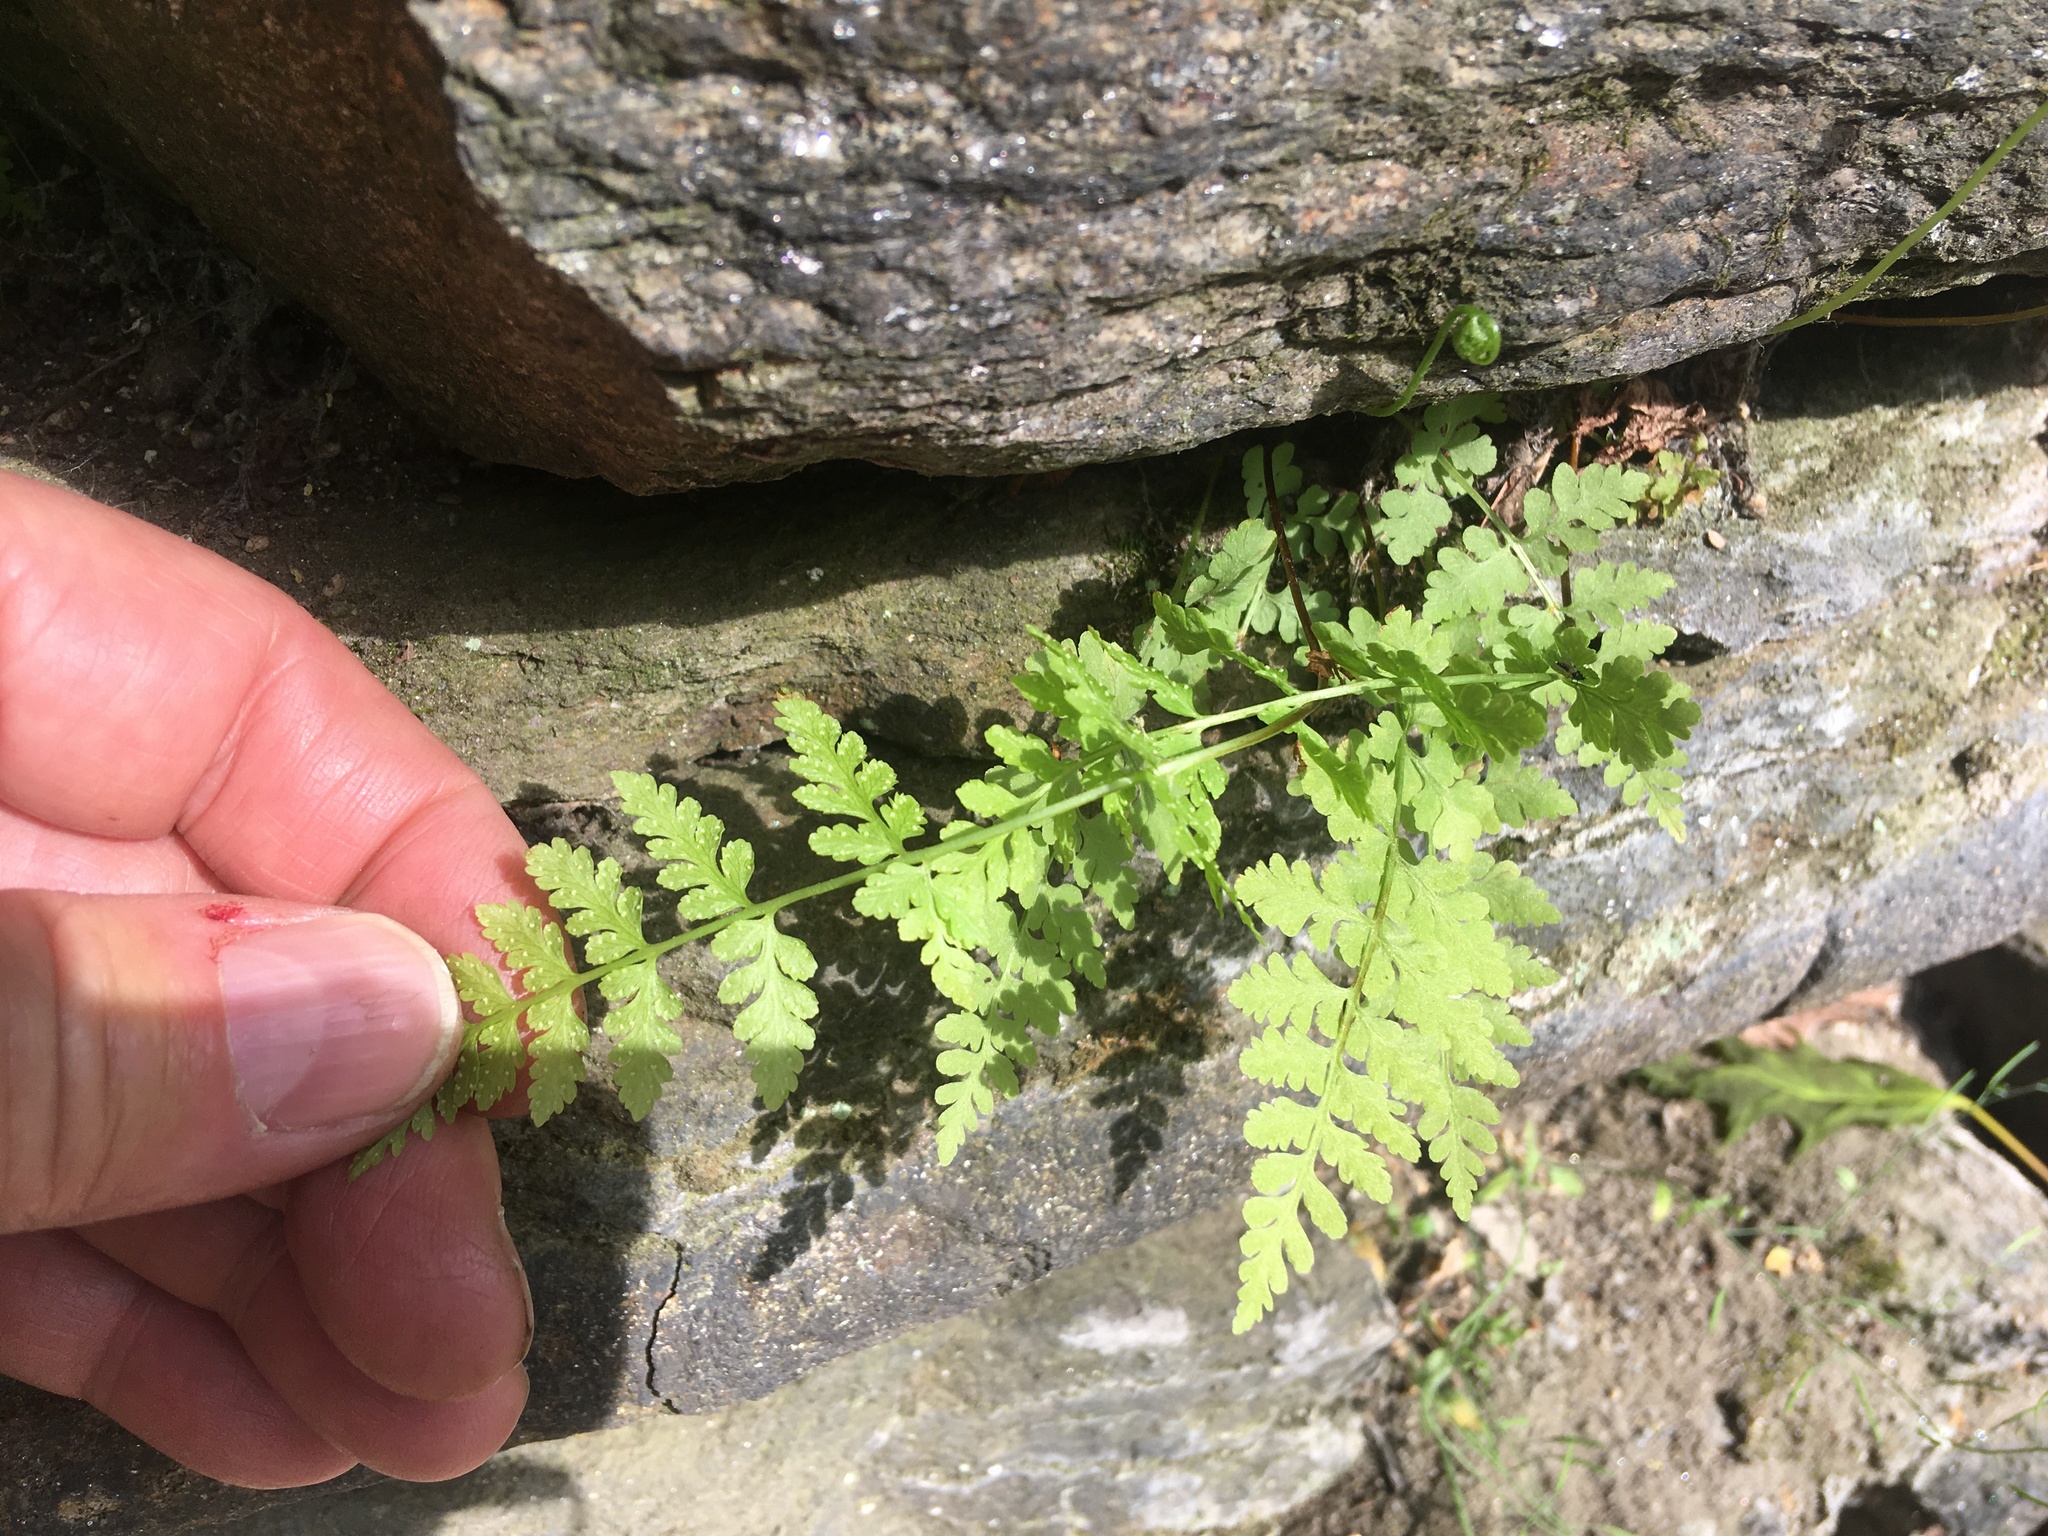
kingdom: Plantae
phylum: Tracheophyta
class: Polypodiopsida
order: Polypodiales
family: Cystopteridaceae
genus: Cystopteris
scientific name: Cystopteris fragilis
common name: Brittle bladder fern
